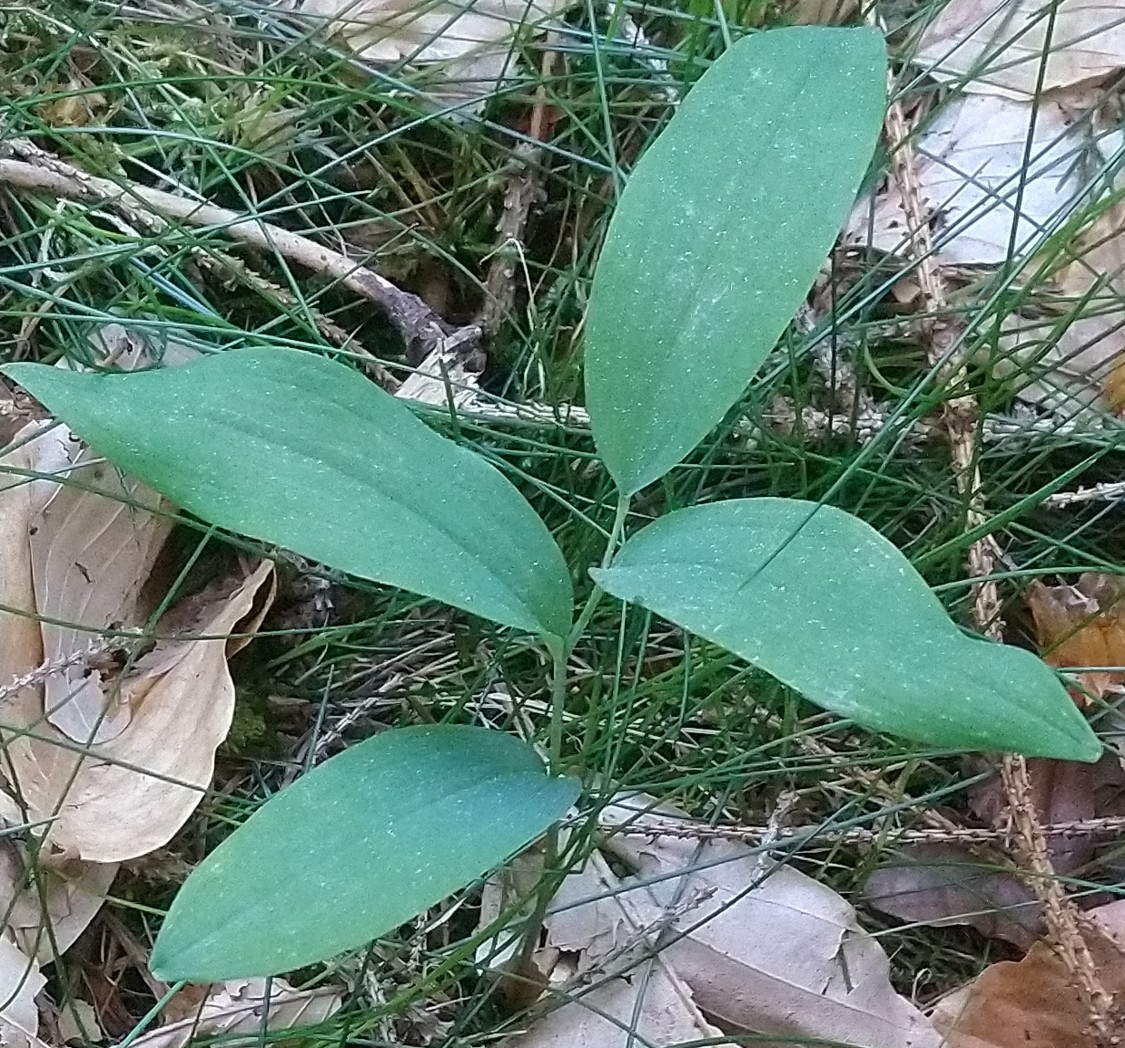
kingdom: Plantae
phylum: Tracheophyta
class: Liliopsida
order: Asparagales
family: Asparagaceae
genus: Polygonatum
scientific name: Polygonatum multiflorum
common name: Solomon's-seal
